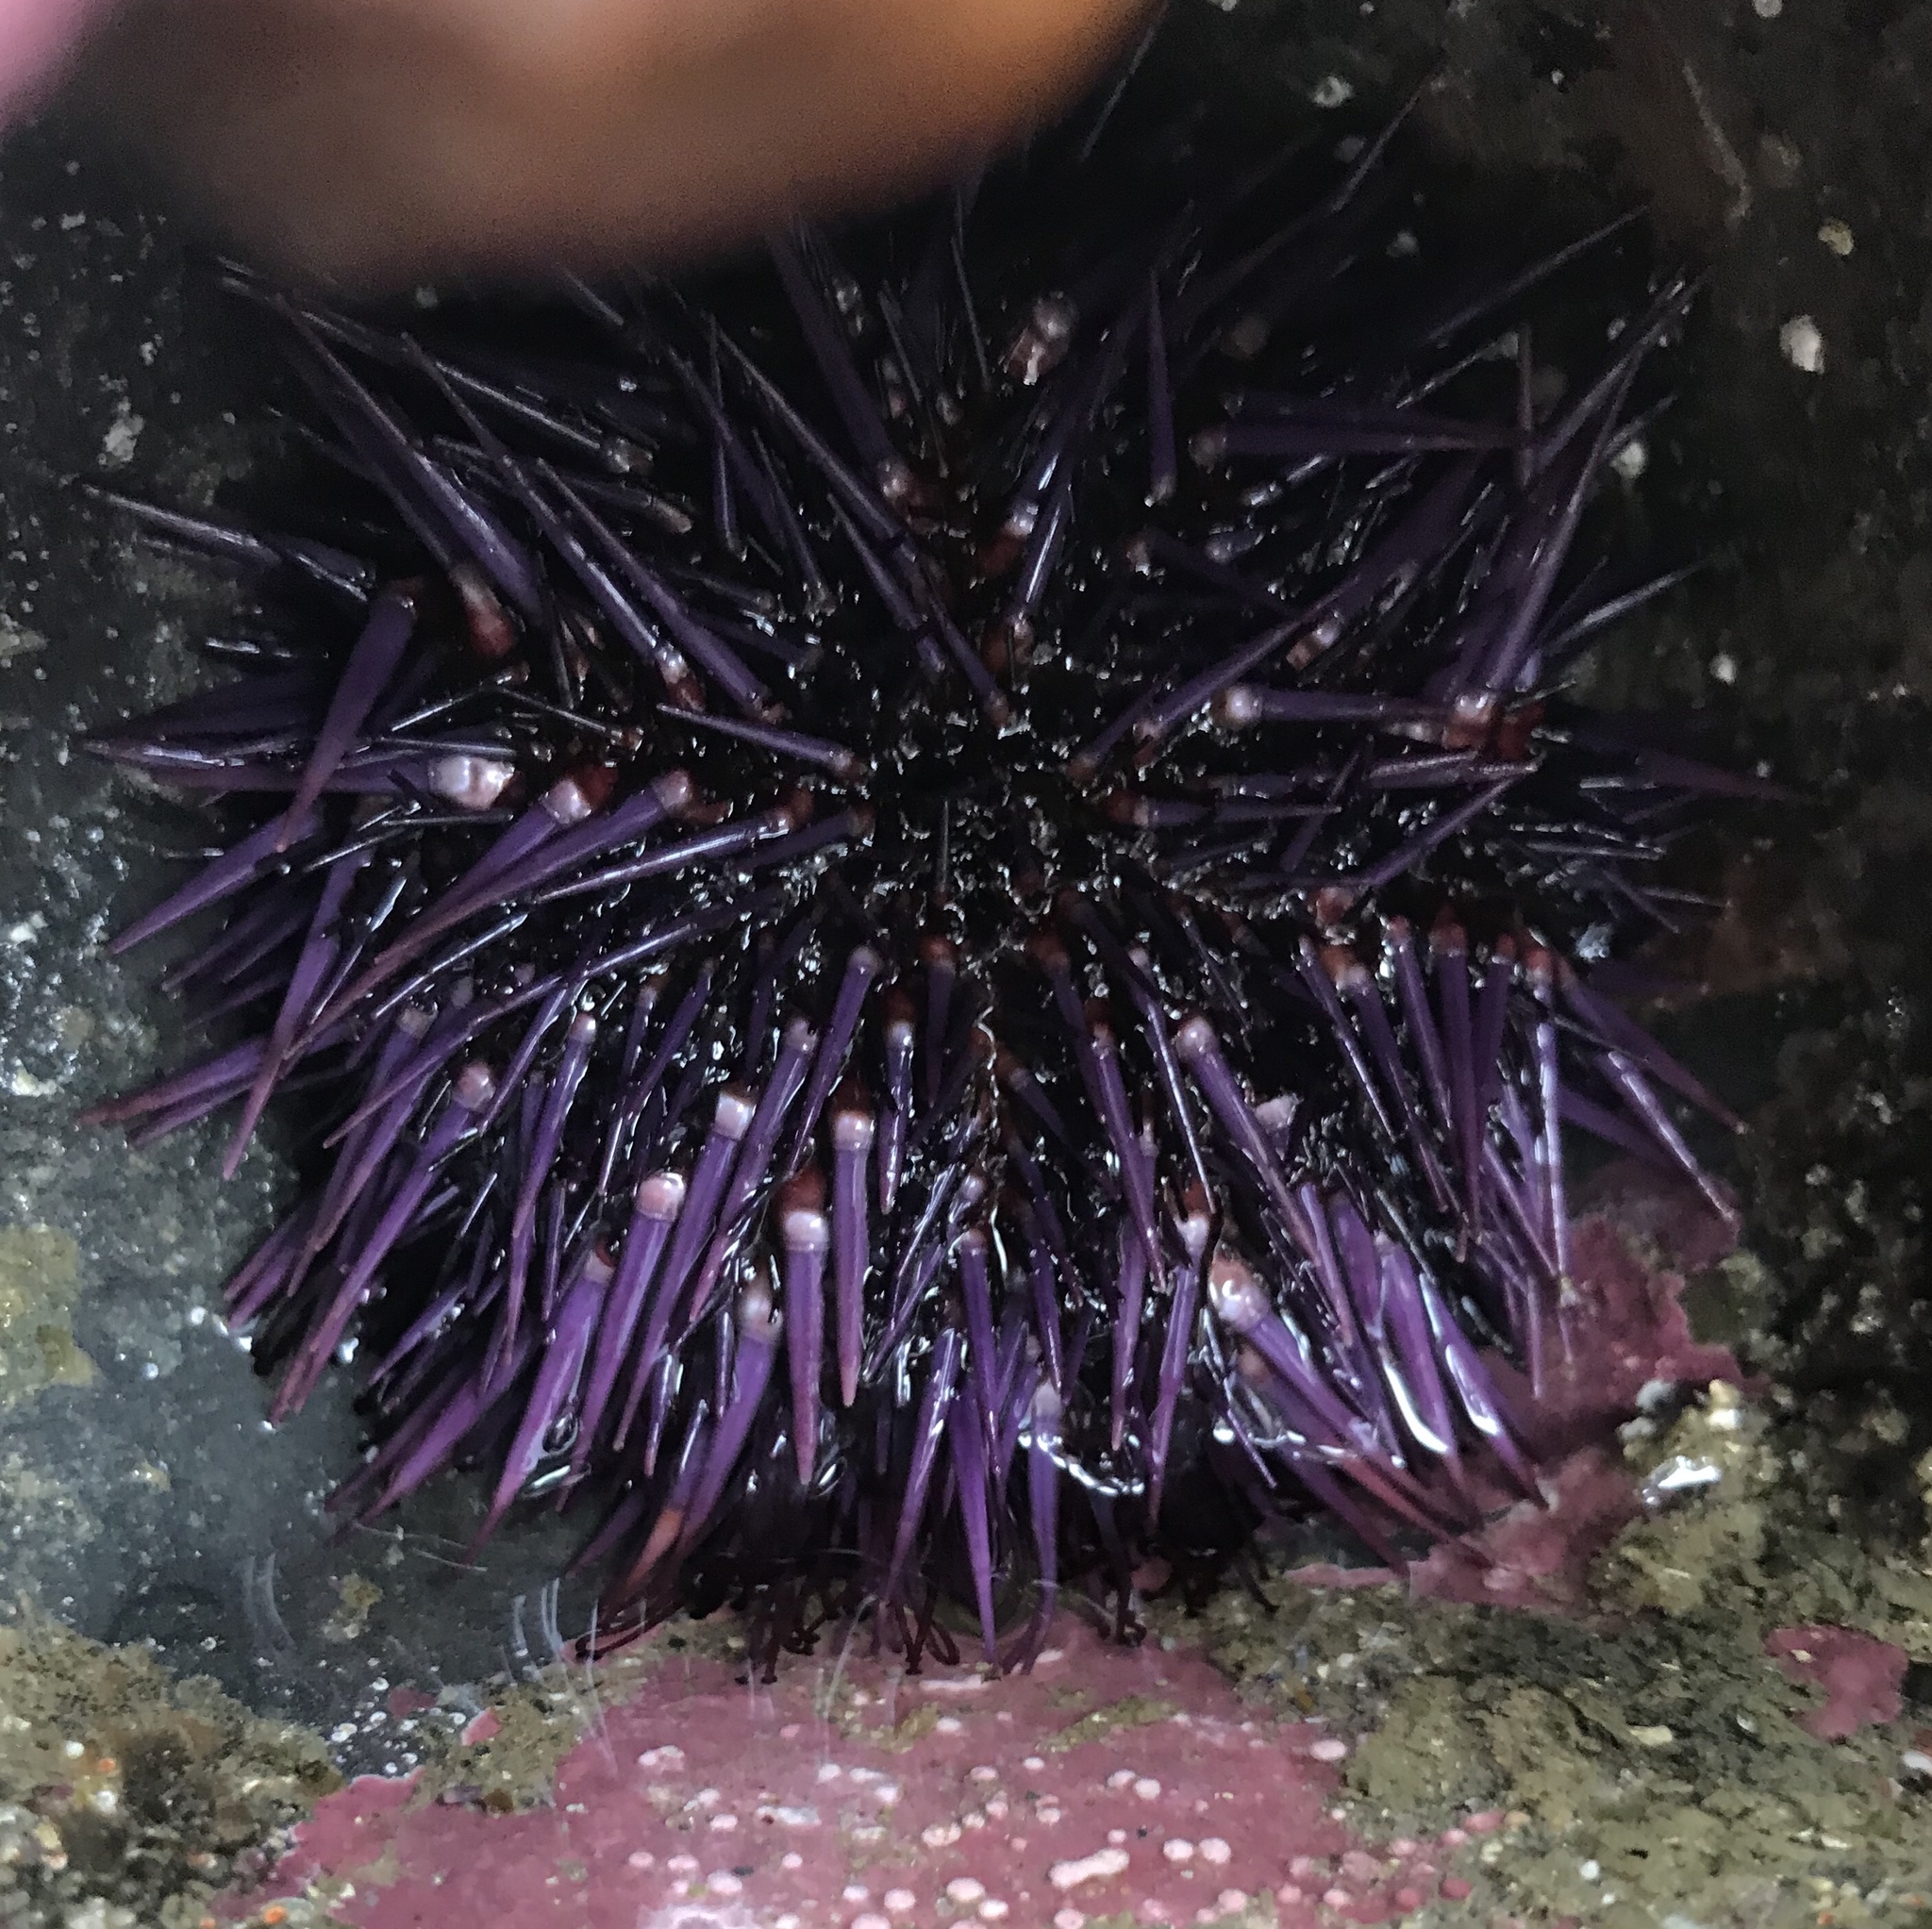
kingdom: Animalia
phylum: Echinodermata
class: Echinoidea
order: Camarodonta
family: Strongylocentrotidae
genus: Strongylocentrotus
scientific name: Strongylocentrotus purpuratus
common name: Purple sea urchin
